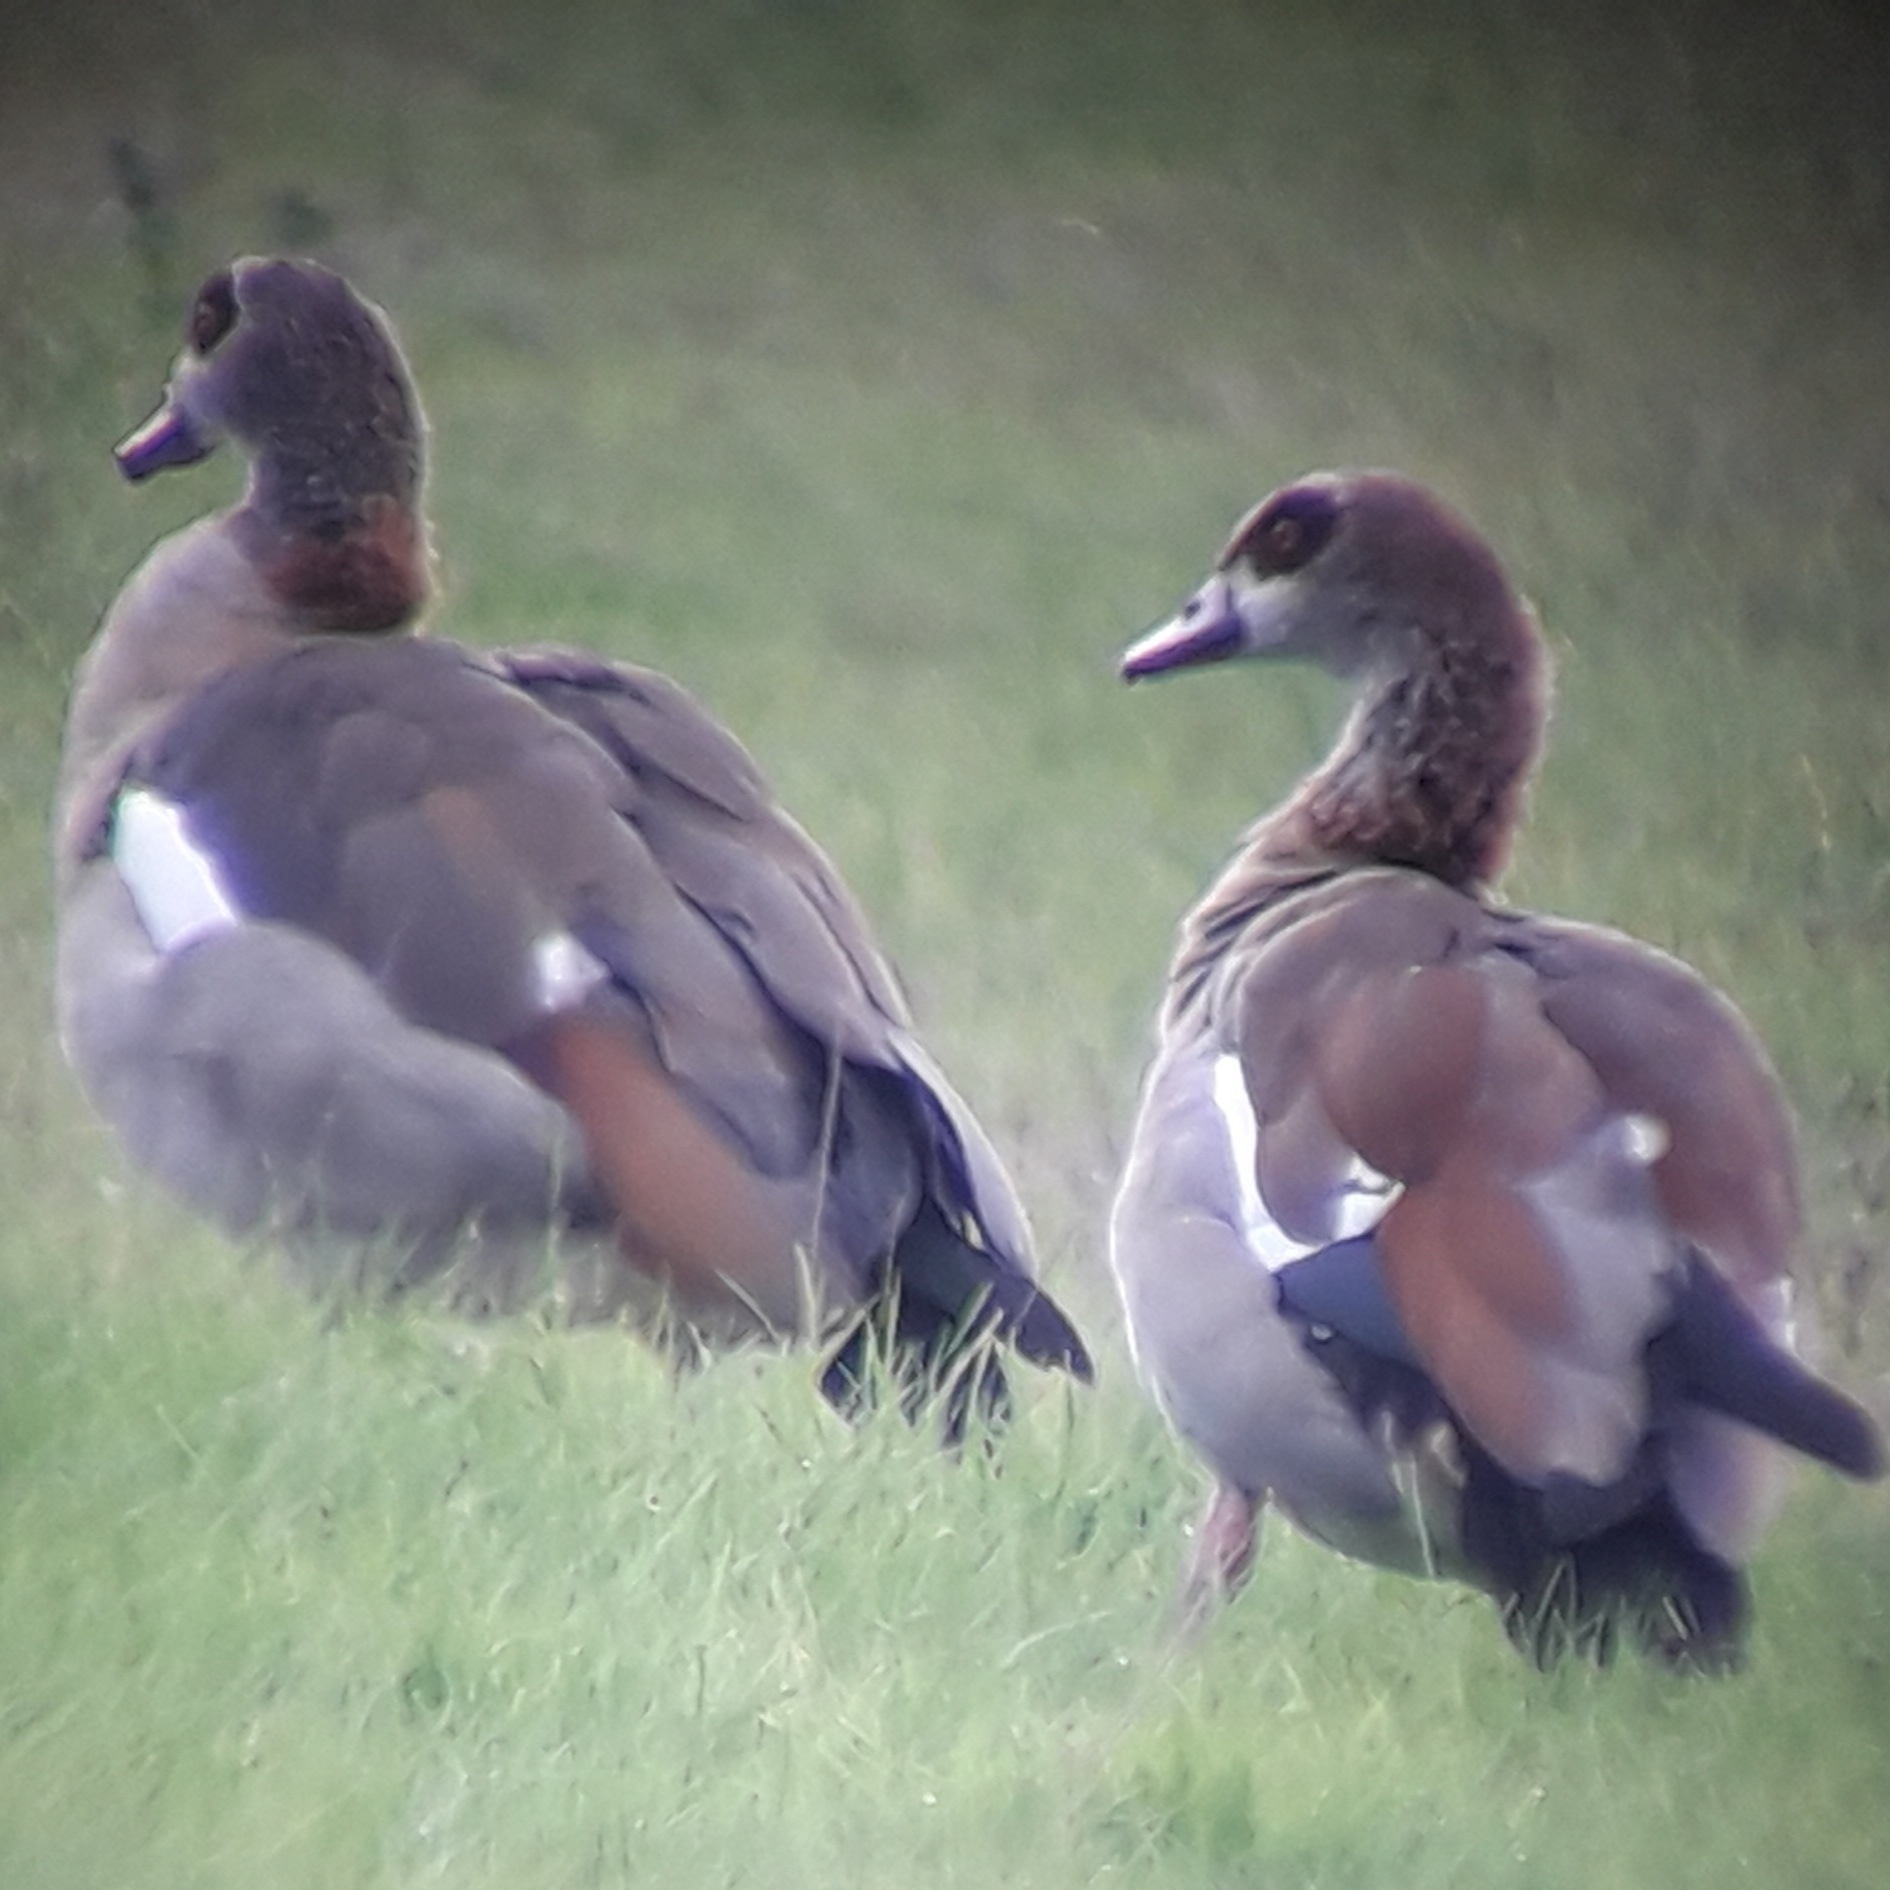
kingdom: Animalia
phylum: Chordata
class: Aves
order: Anseriformes
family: Anatidae
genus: Alopochen
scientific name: Alopochen aegyptiaca
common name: Egyptian goose
